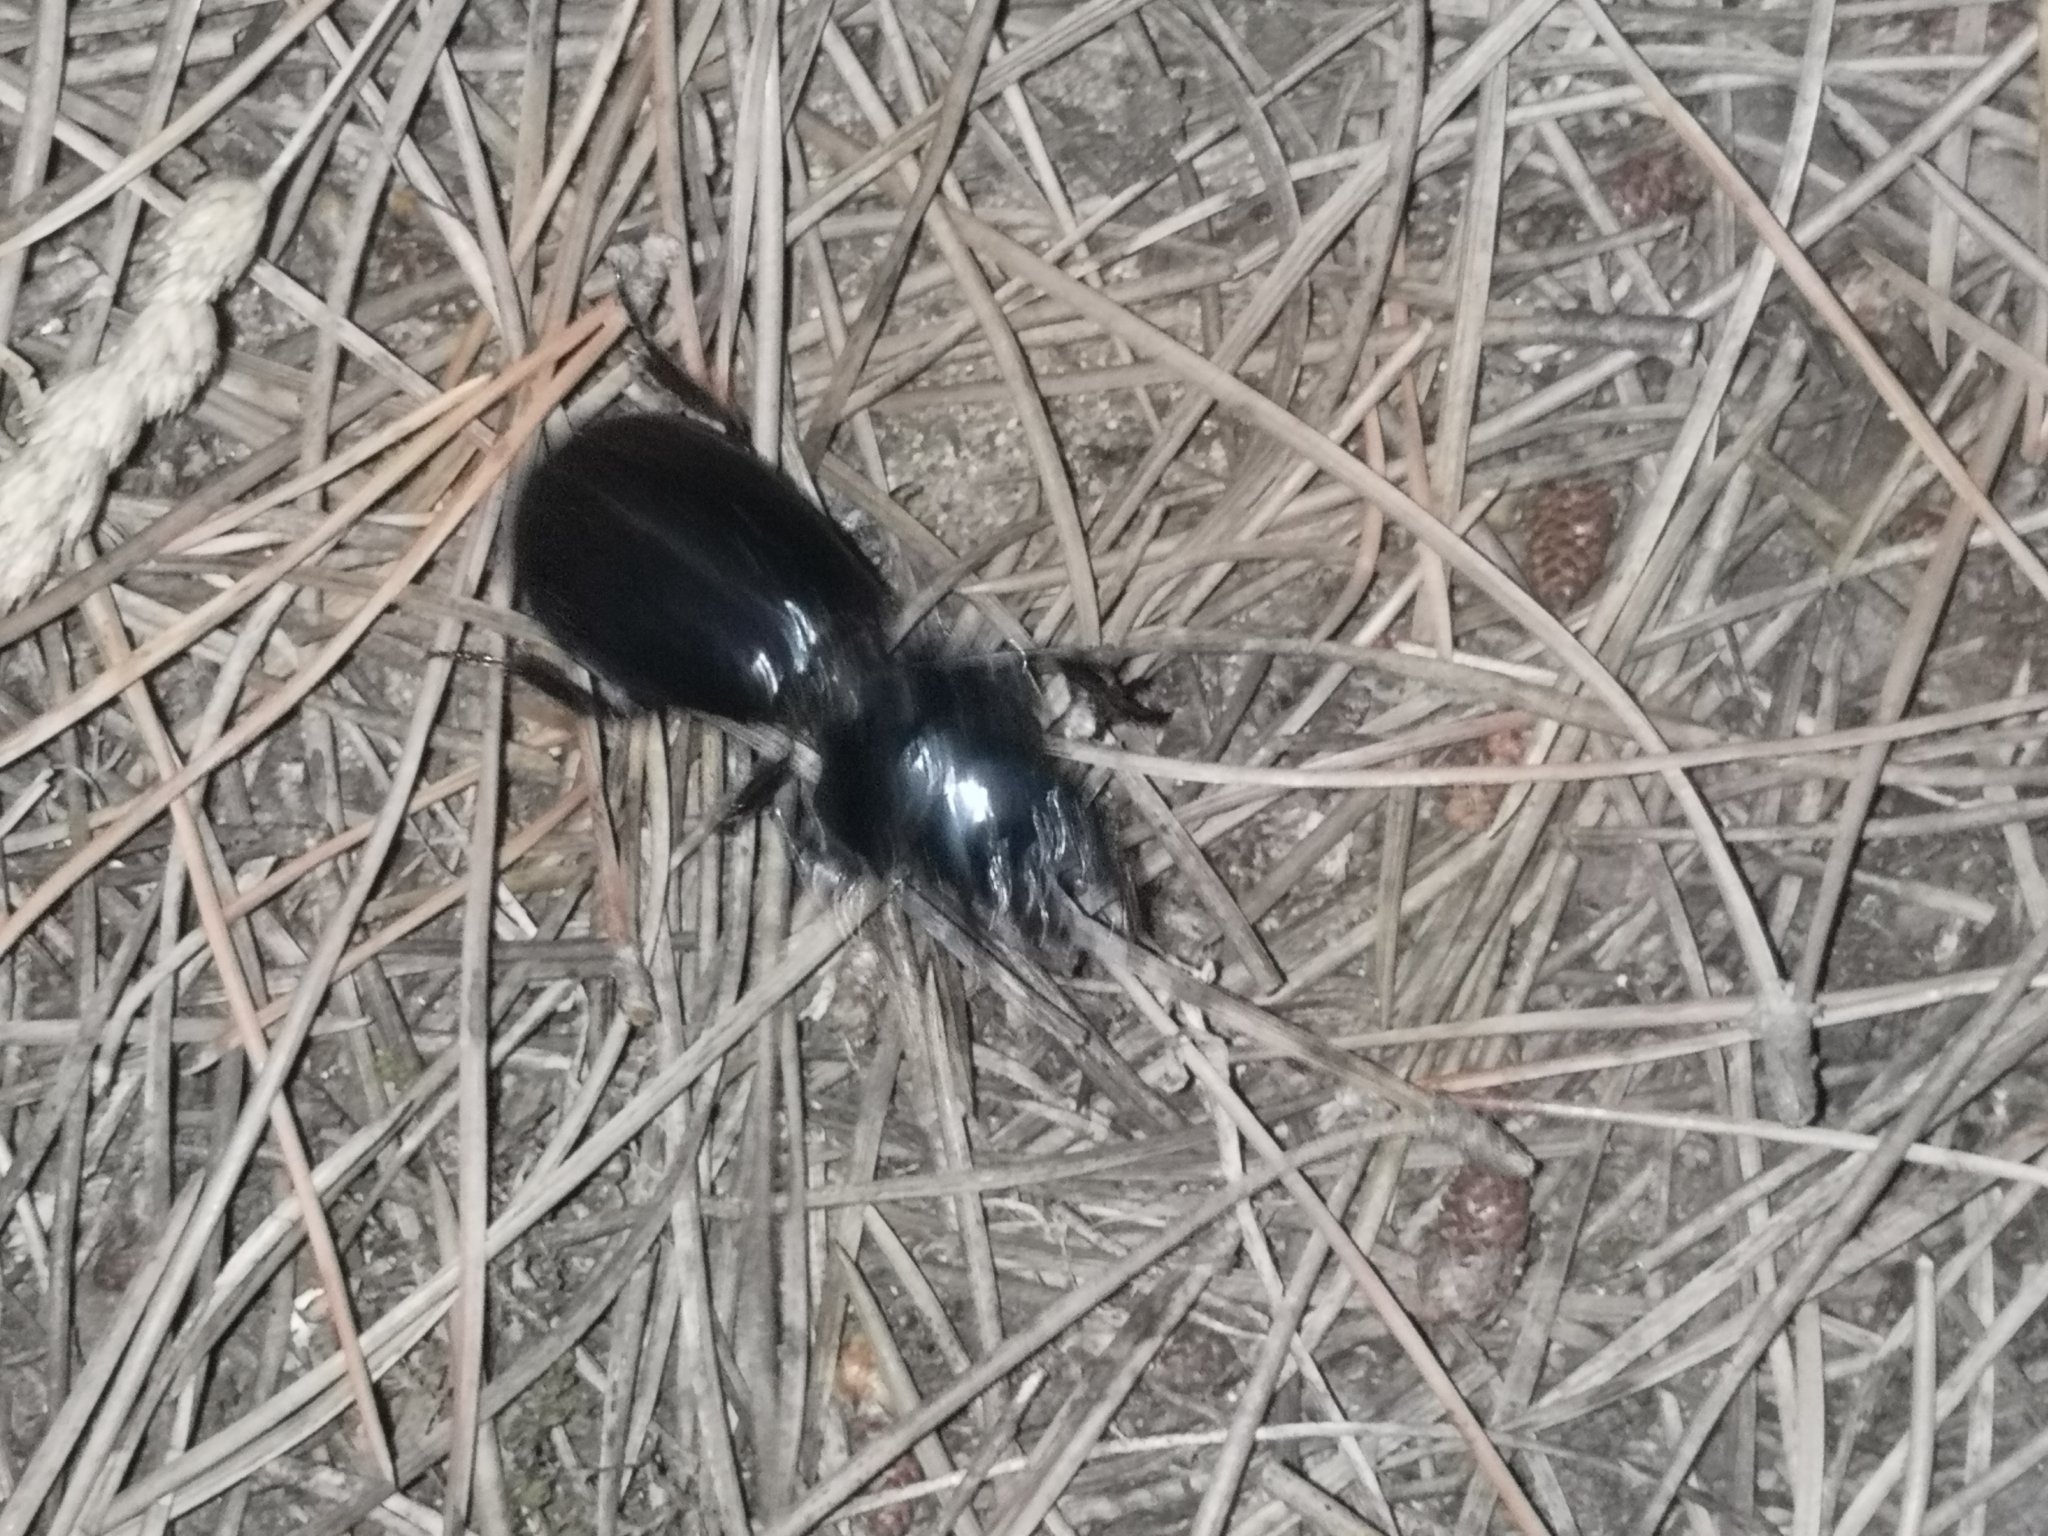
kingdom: Animalia
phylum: Arthropoda
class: Insecta
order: Coleoptera
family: Carabidae
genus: Scarites
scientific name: Scarites buparius
